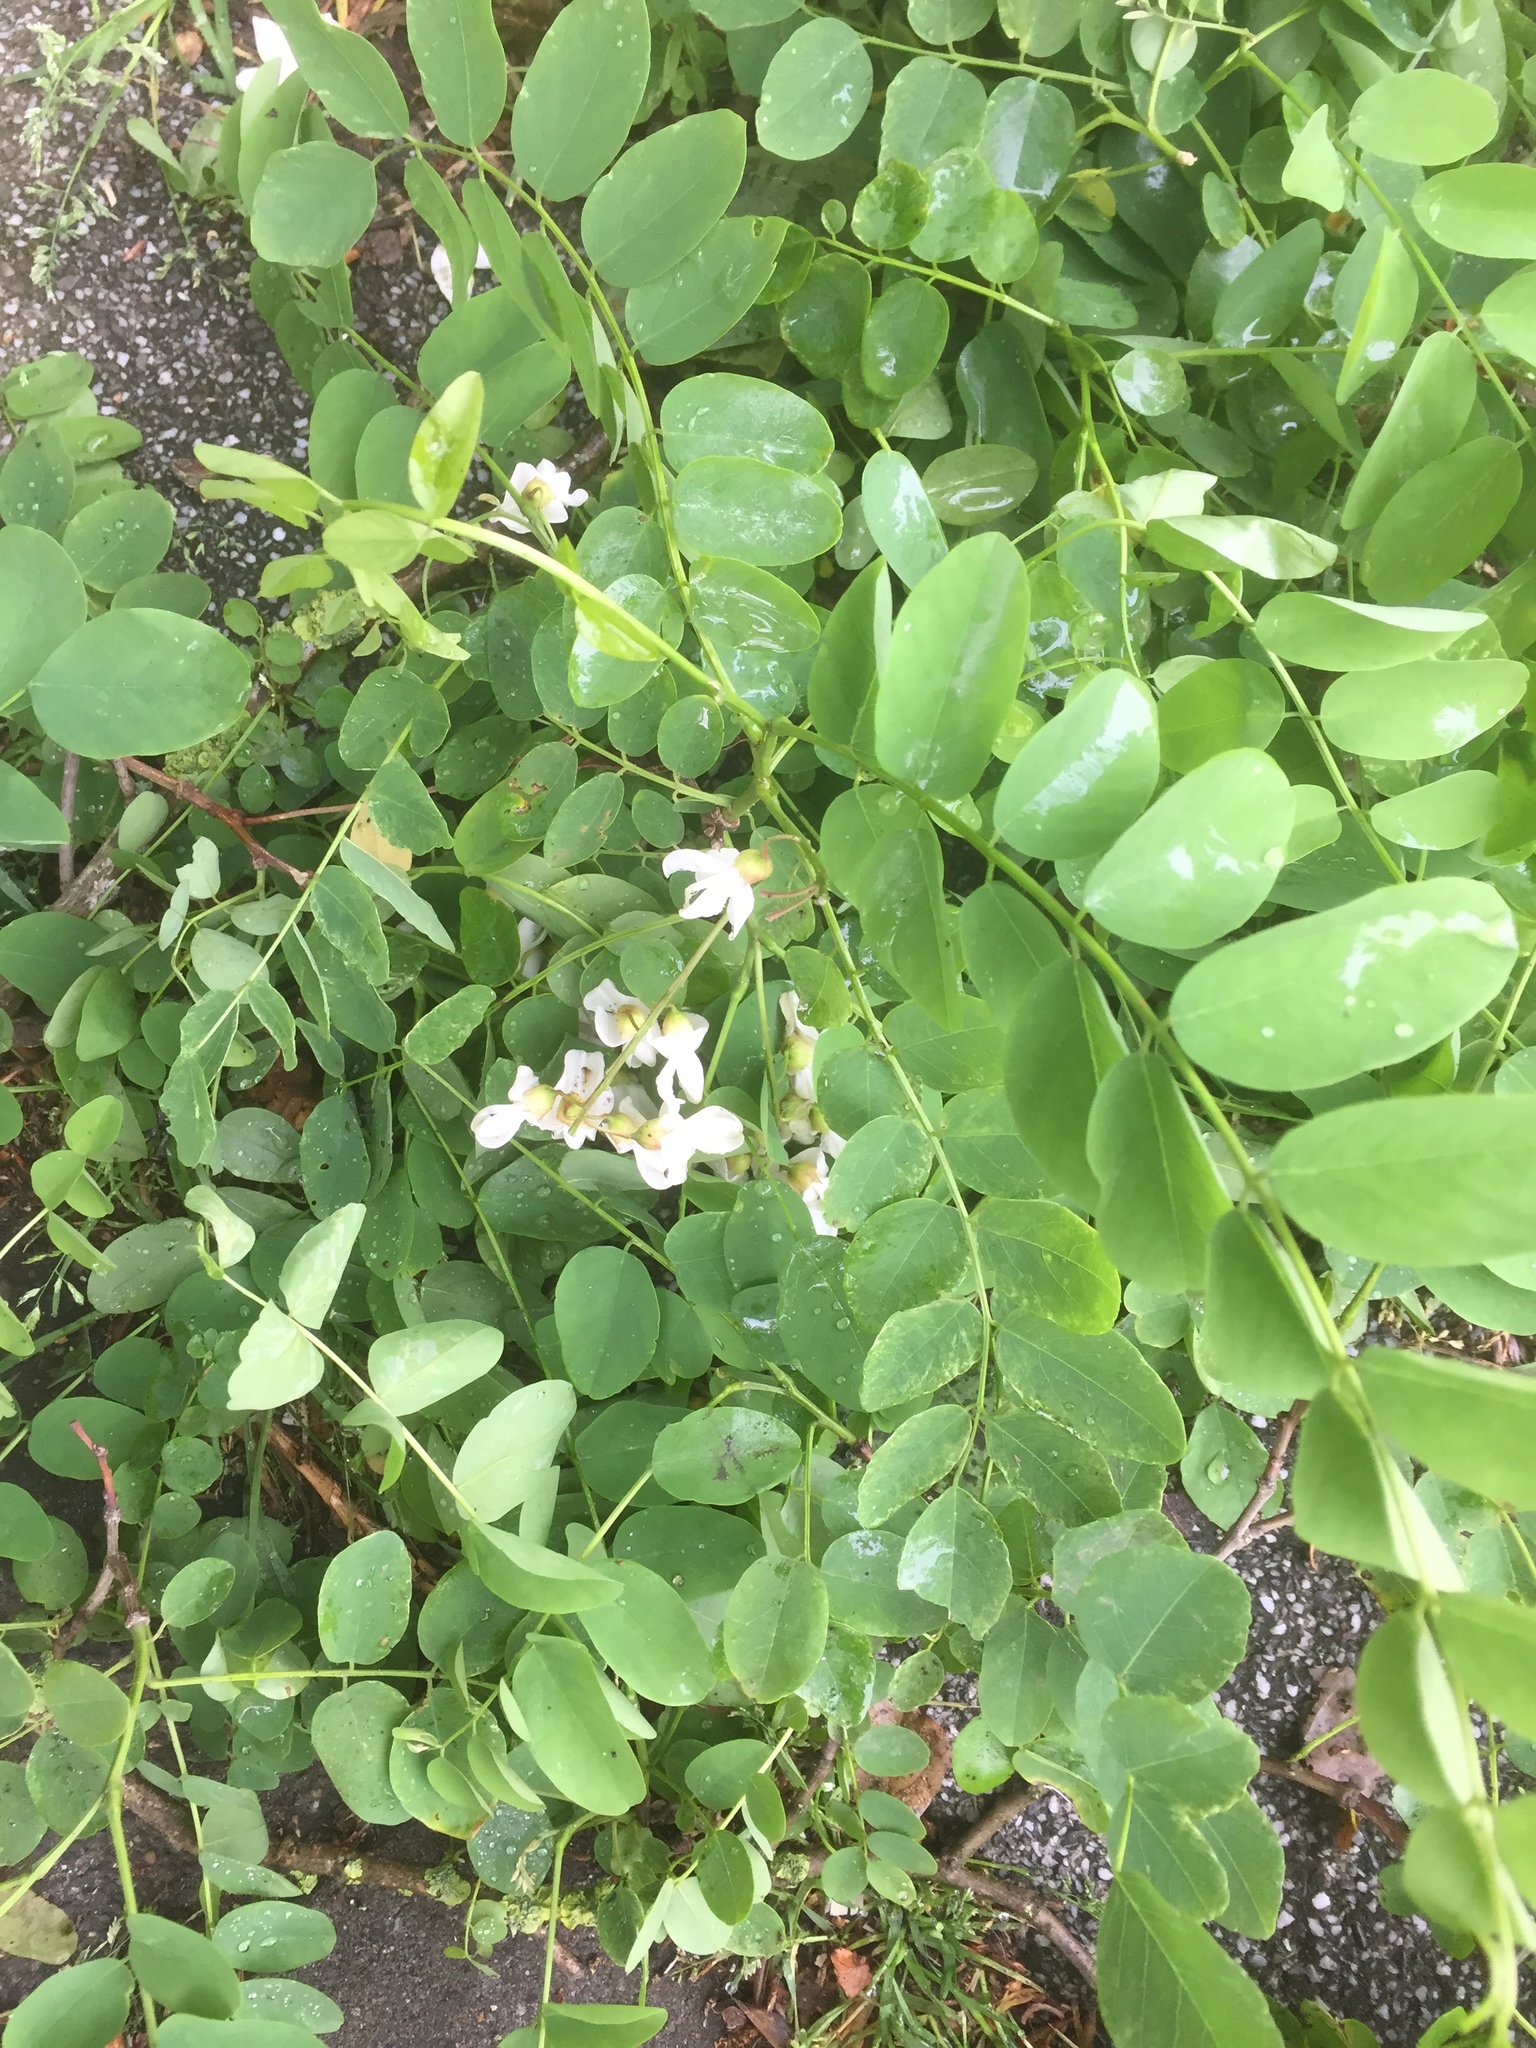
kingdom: Plantae
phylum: Tracheophyta
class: Magnoliopsida
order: Fabales
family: Fabaceae
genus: Robinia
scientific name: Robinia pseudoacacia
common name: Black locust
